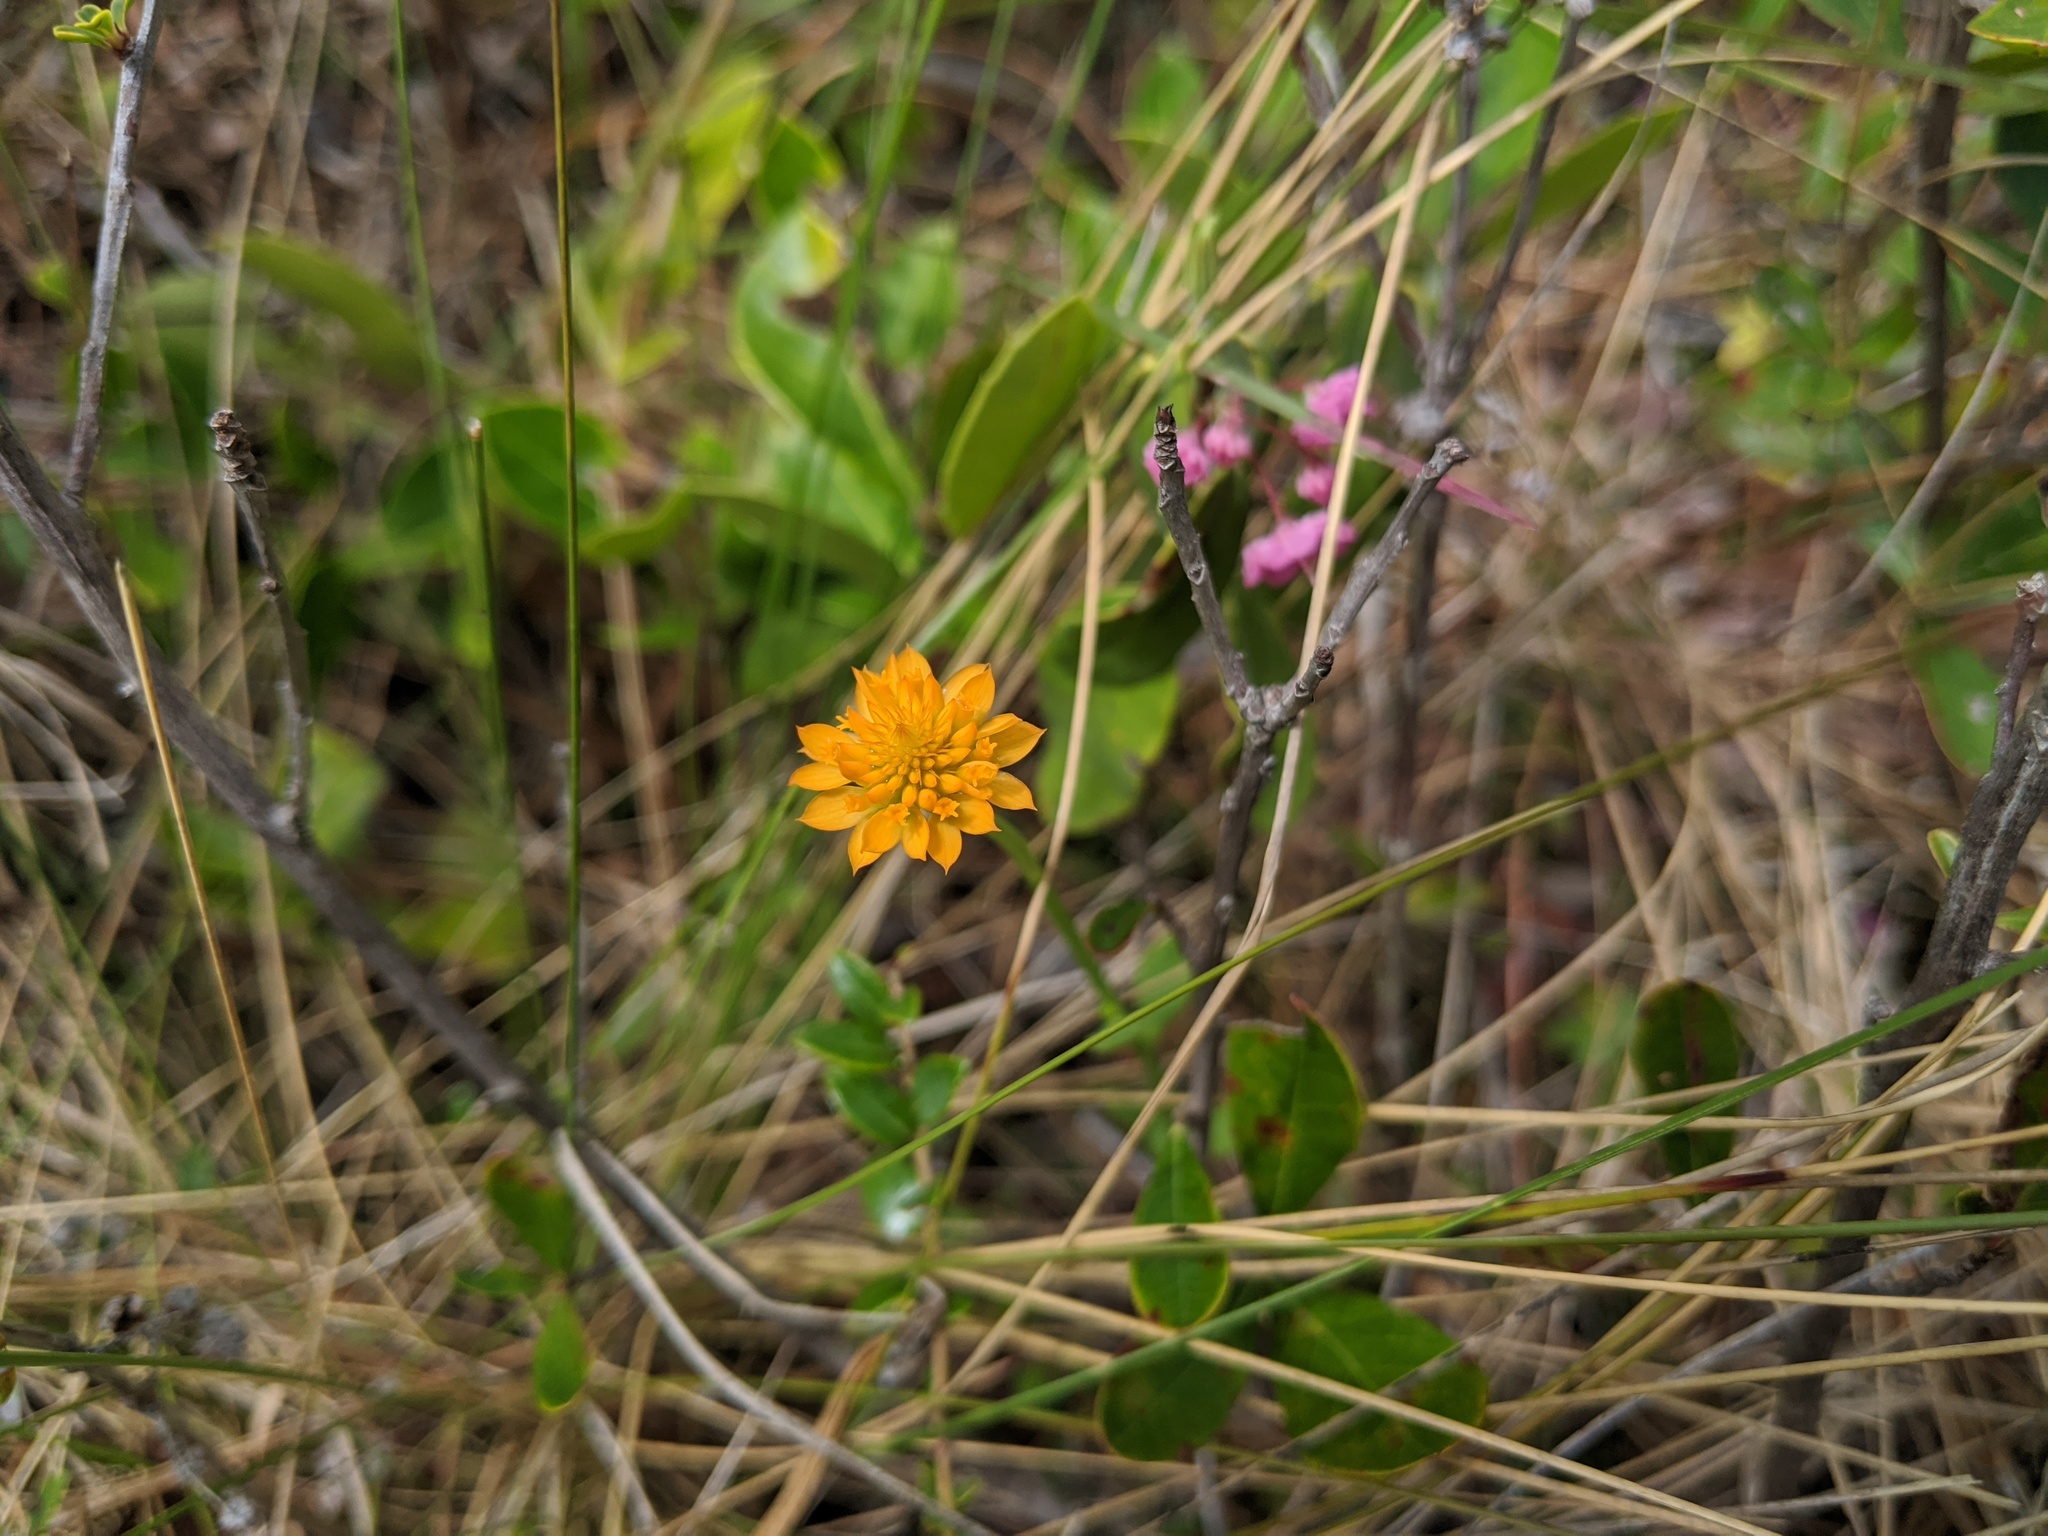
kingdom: Plantae
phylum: Tracheophyta
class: Magnoliopsida
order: Fabales
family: Polygalaceae
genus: Polygala
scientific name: Polygala lutea
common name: Orange milkwort
